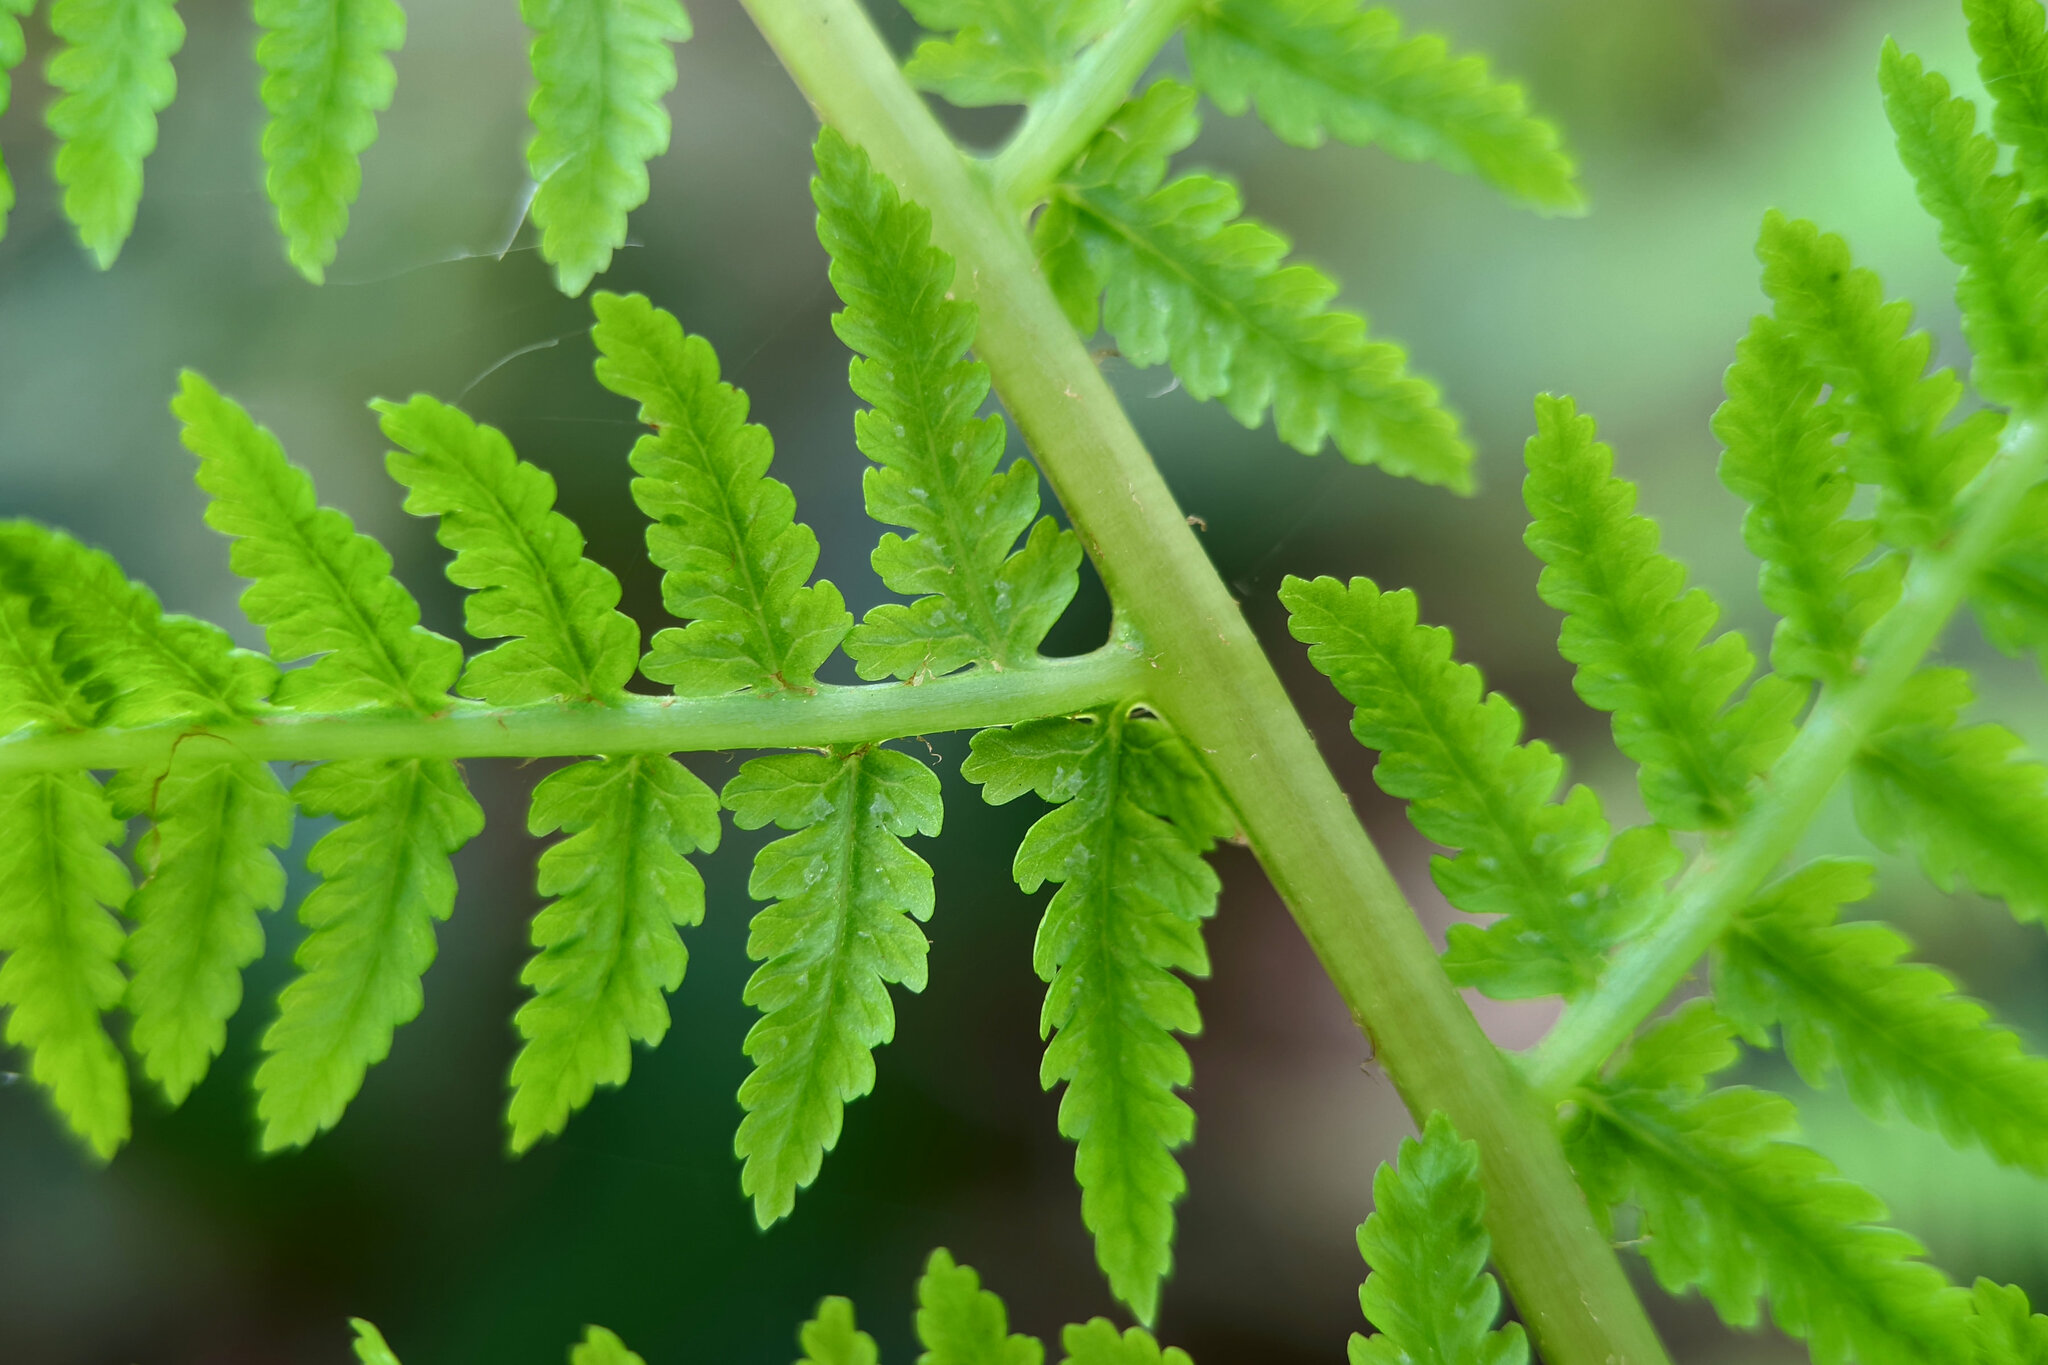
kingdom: Plantae
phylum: Tracheophyta
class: Polypodiopsida
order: Polypodiales
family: Athyriaceae
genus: Athyrium
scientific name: Athyrium filix-femina
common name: Lady fern
